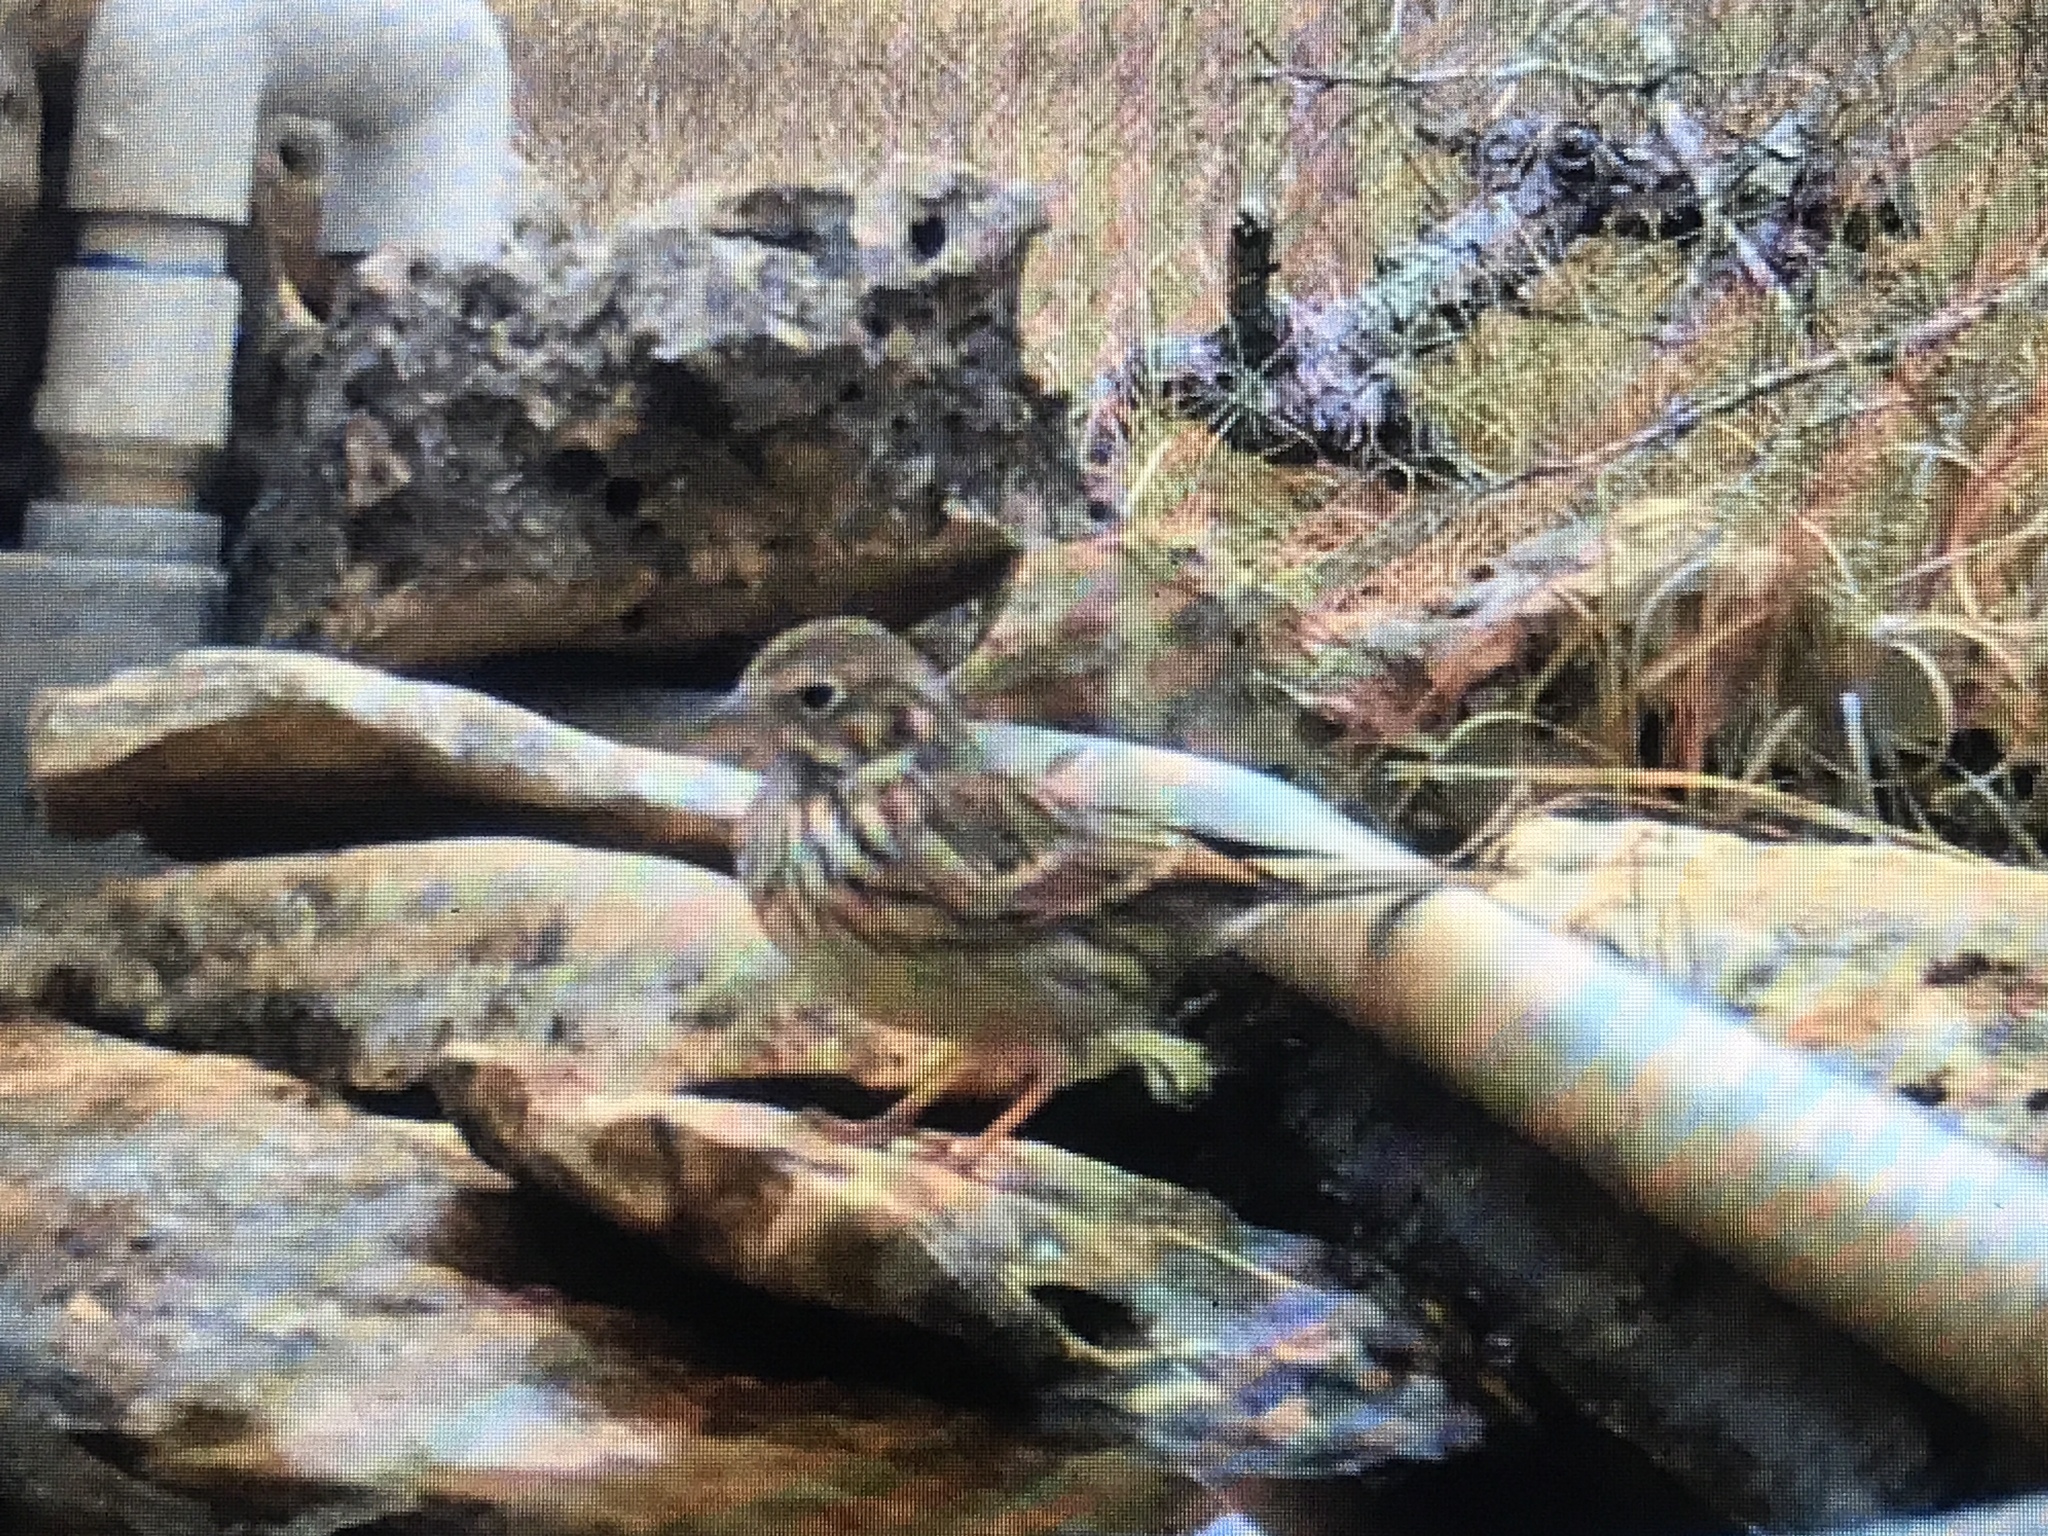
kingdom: Animalia
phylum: Chordata
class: Aves
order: Passeriformes
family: Passerellidae
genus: Pooecetes
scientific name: Pooecetes gramineus
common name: Vesper sparrow
